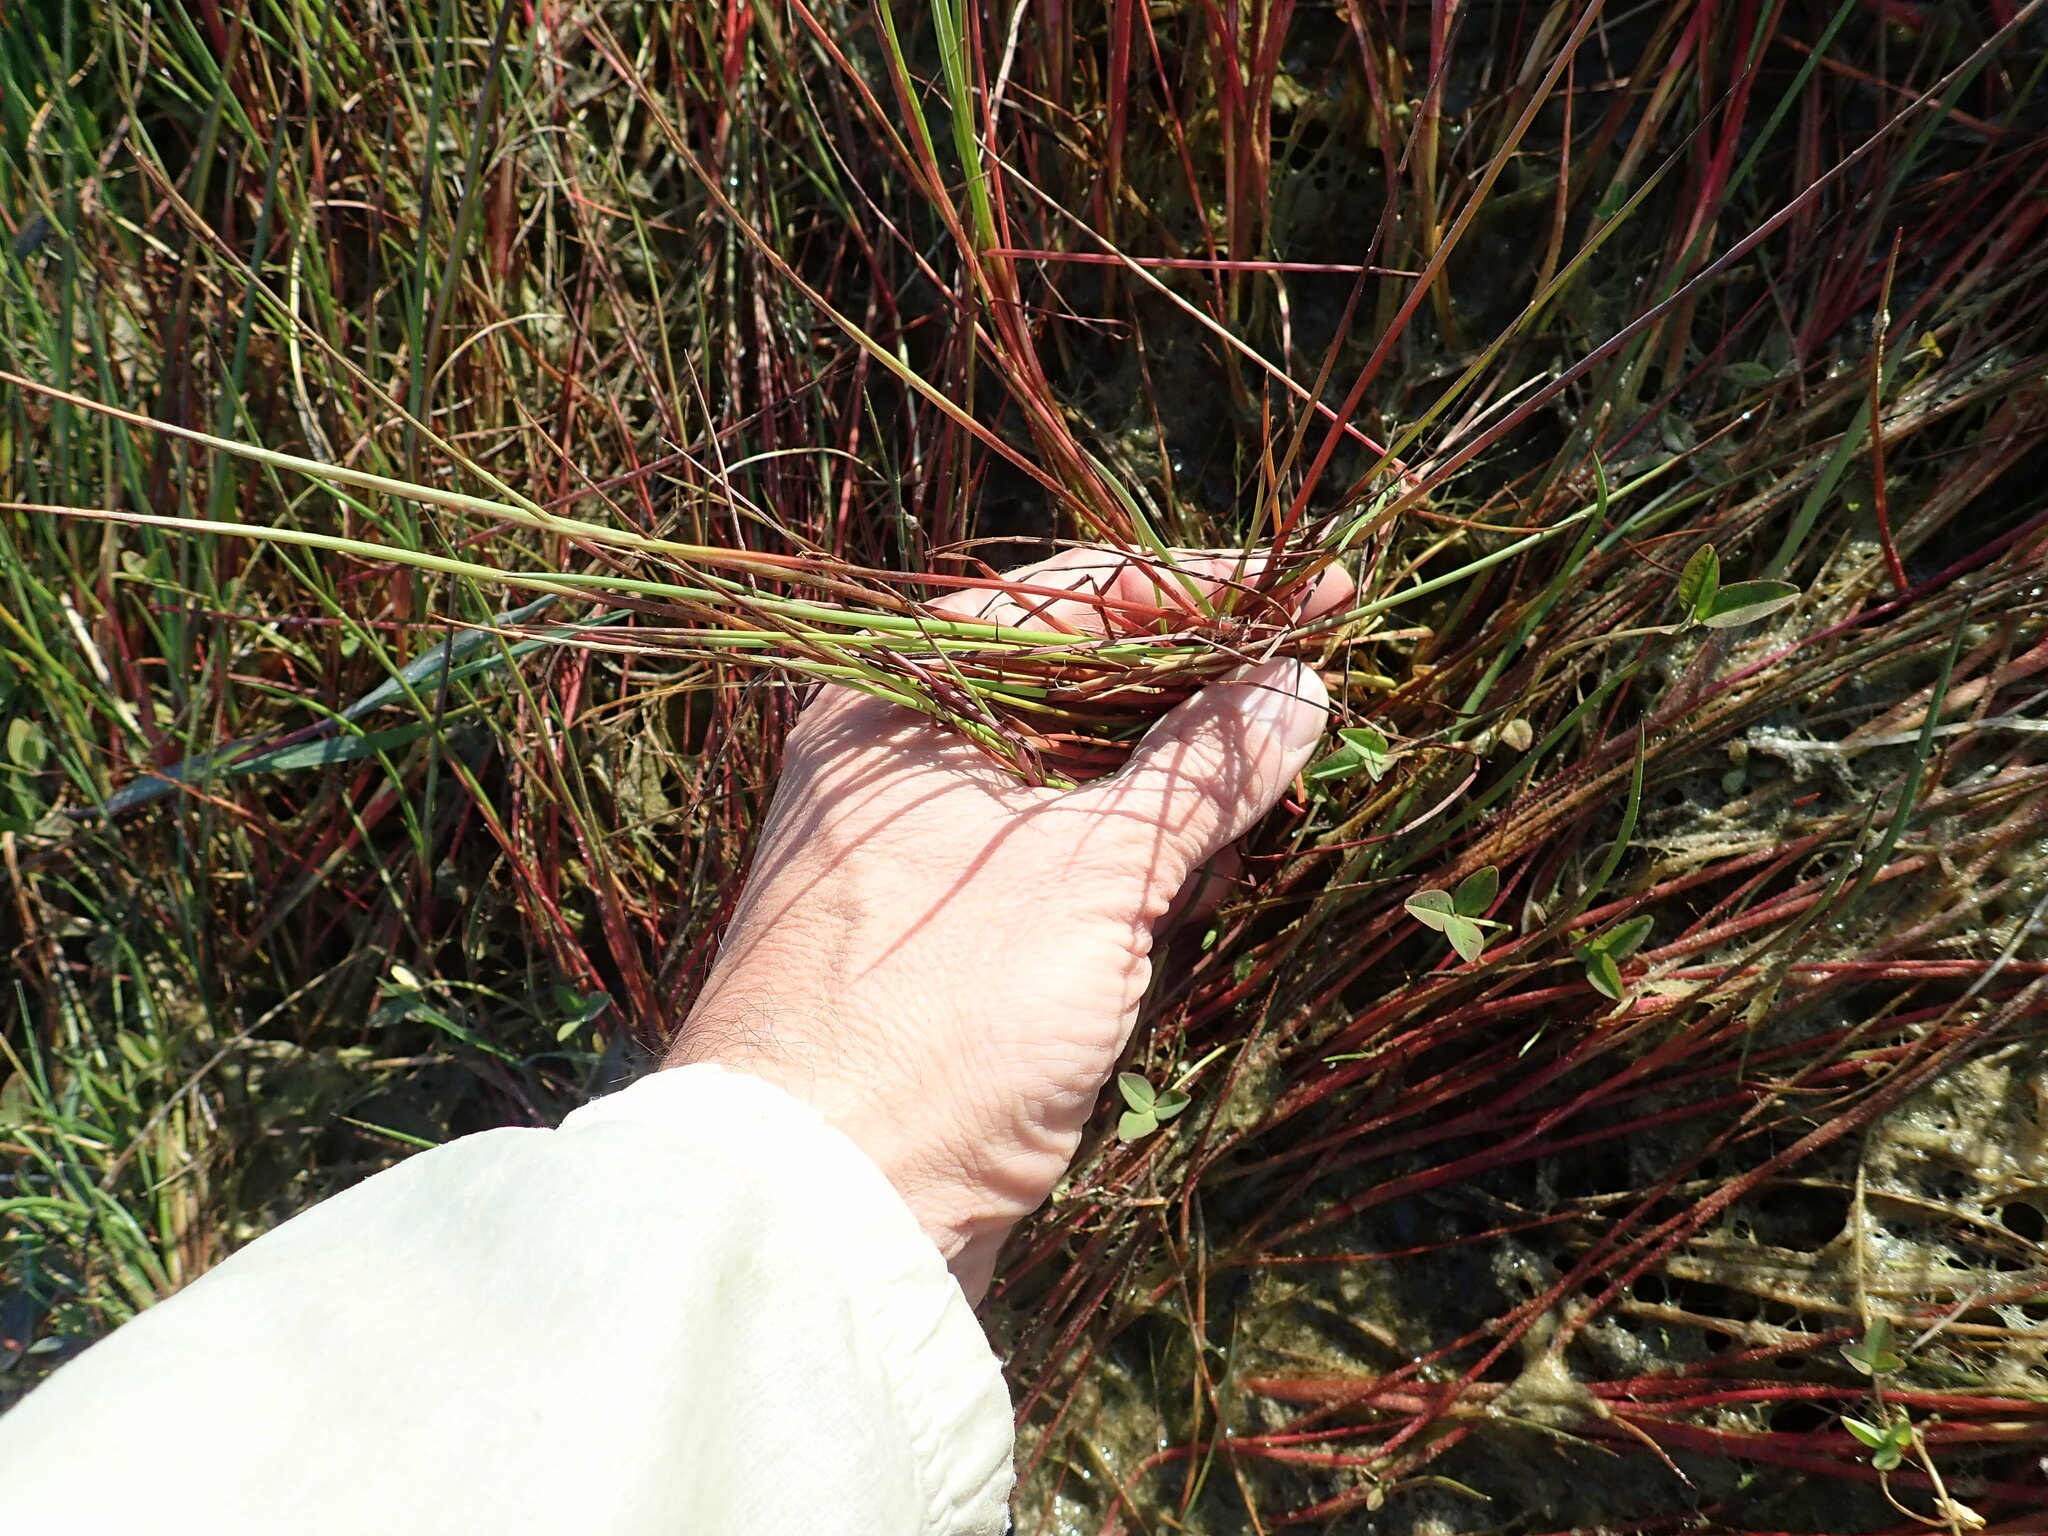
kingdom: Plantae
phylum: Tracheophyta
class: Liliopsida
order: Poales
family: Juncaceae
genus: Juncus
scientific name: Juncus articulatus
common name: Jointed rush
